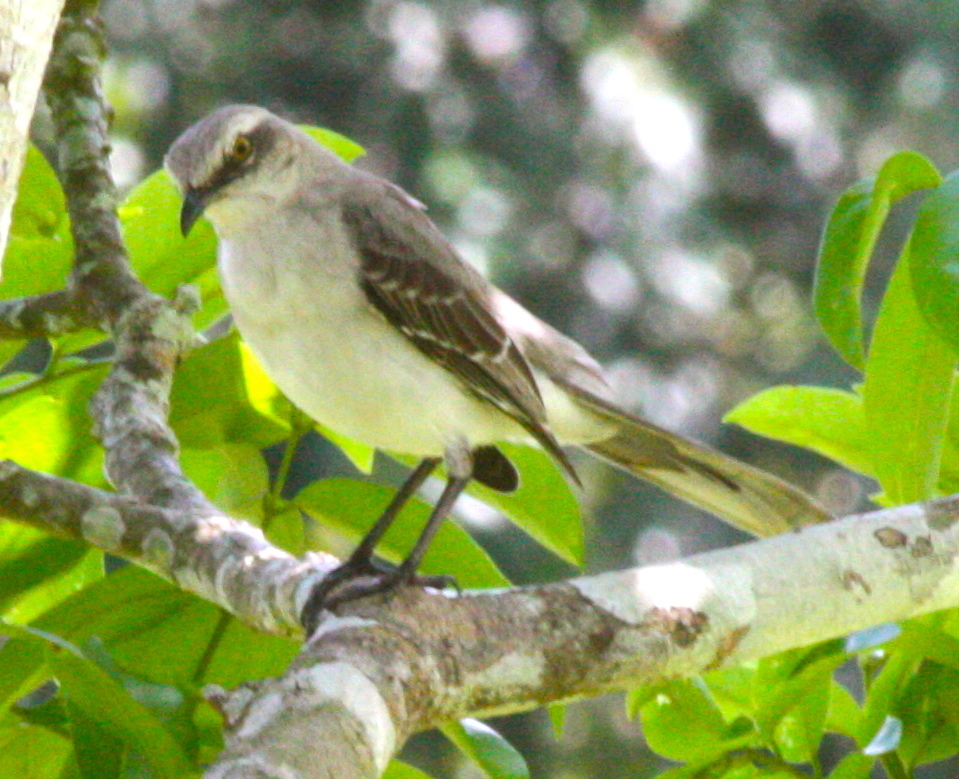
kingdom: Animalia
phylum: Chordata
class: Aves
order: Passeriformes
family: Mimidae
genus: Mimus
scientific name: Mimus gilvus
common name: Tropical mockingbird
